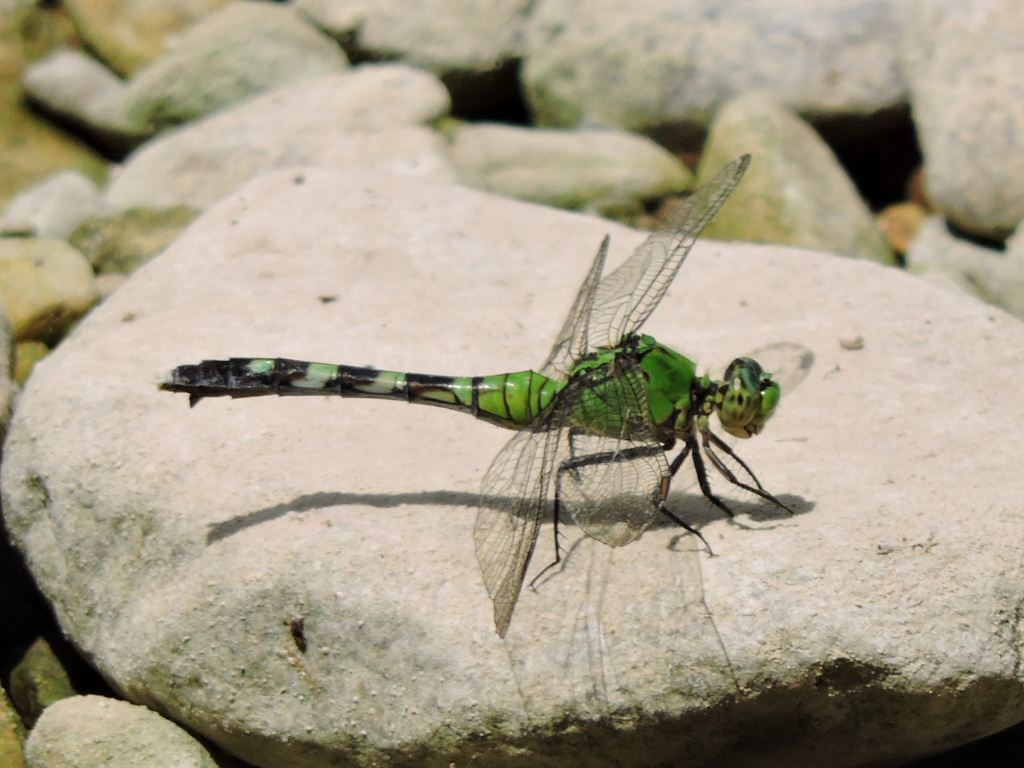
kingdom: Animalia
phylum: Arthropoda
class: Insecta
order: Odonata
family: Libellulidae
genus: Erythemis
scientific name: Erythemis simplicicollis
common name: Eastern pondhawk
